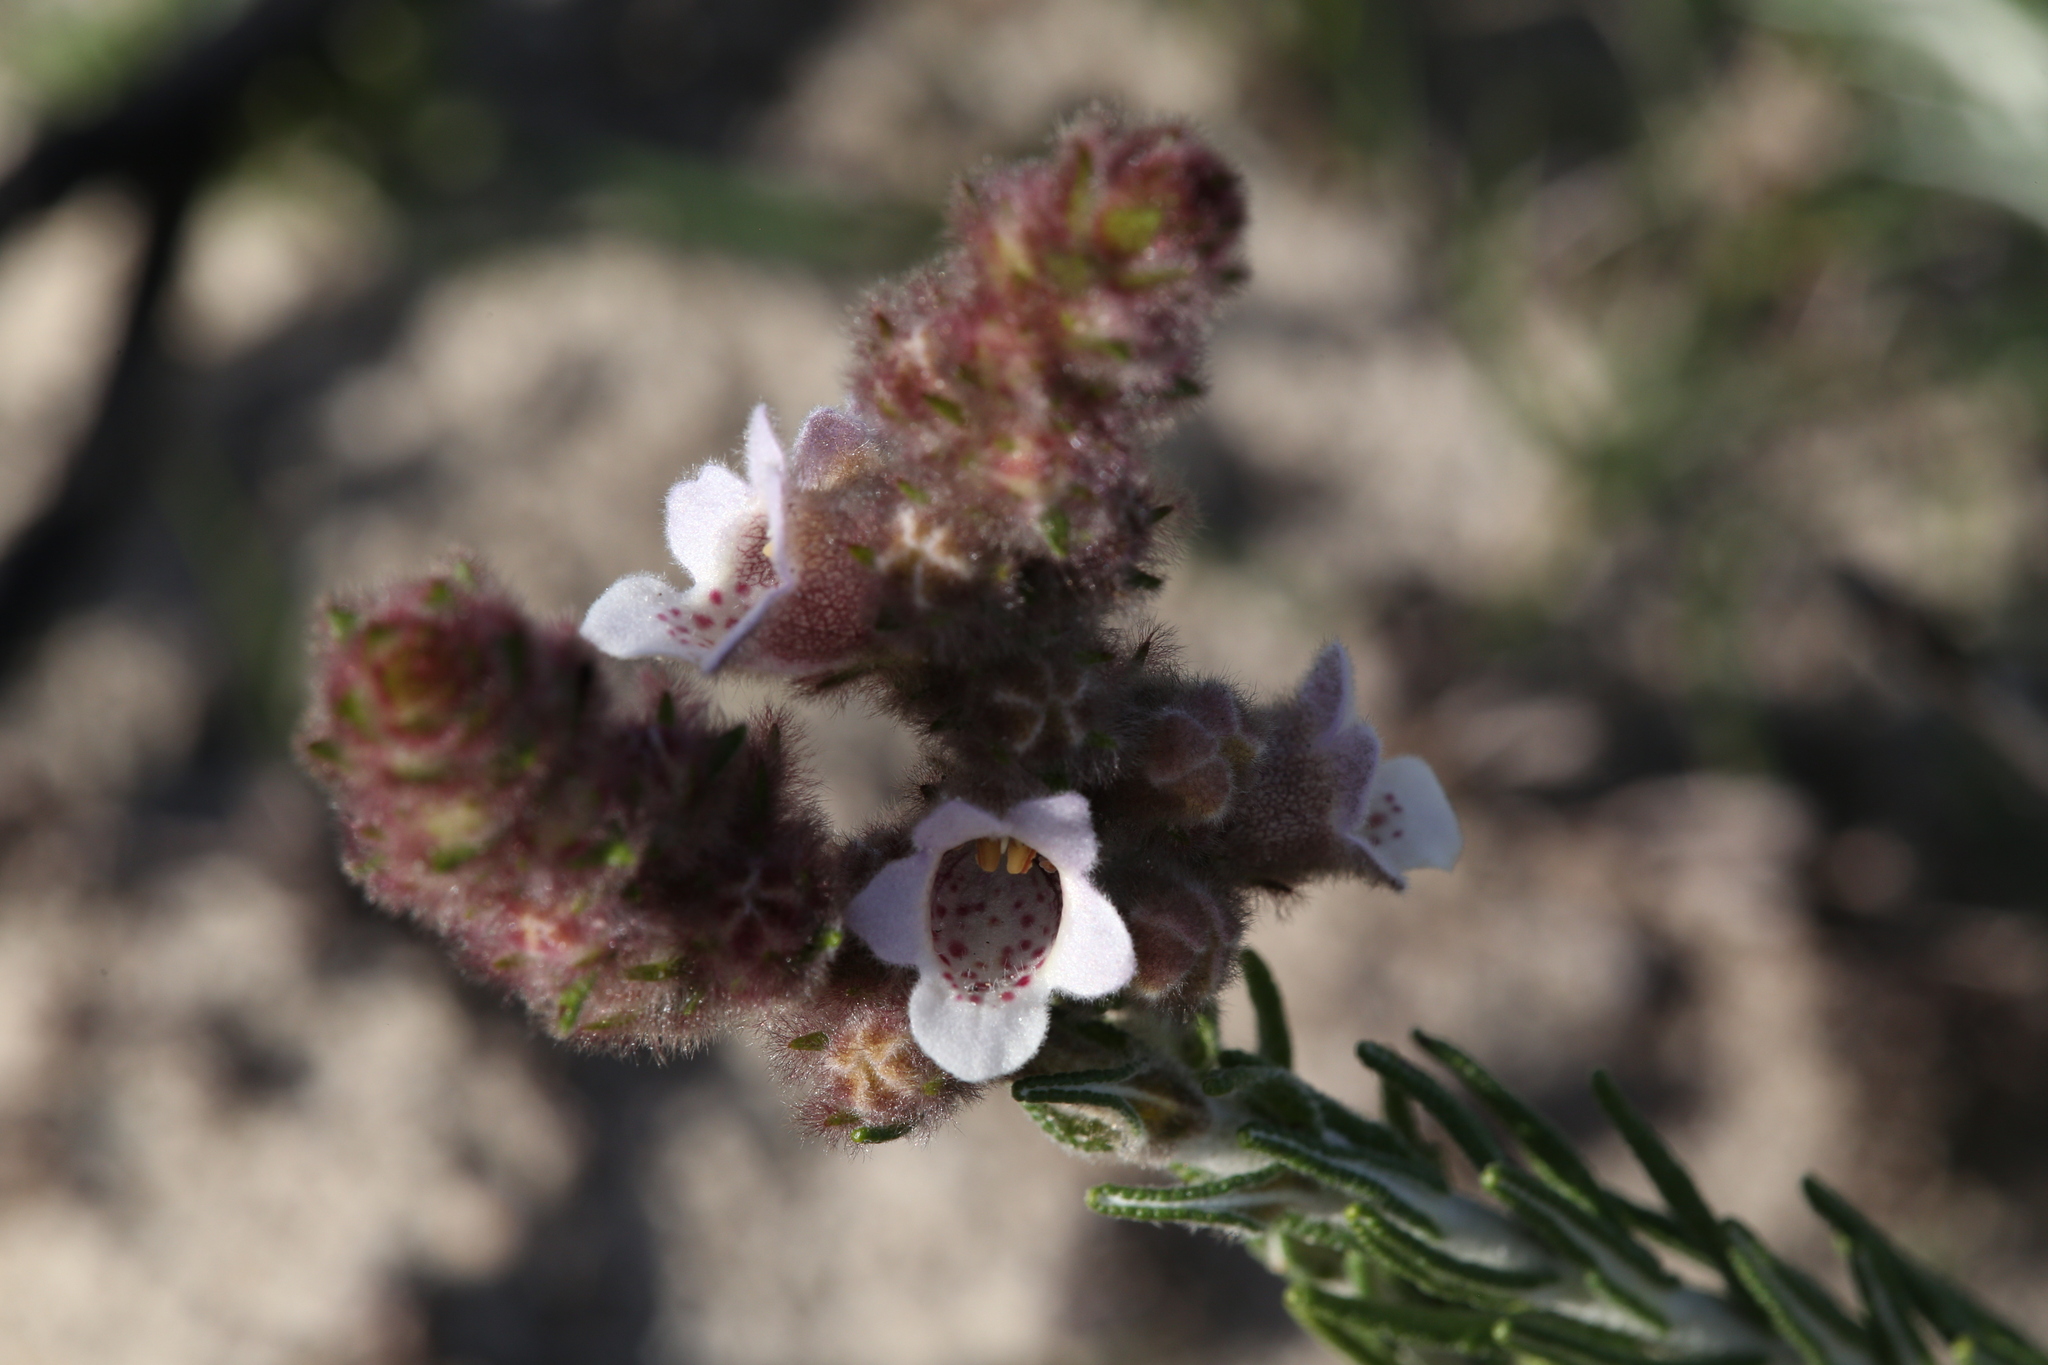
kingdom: Plantae
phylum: Tracheophyta
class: Magnoliopsida
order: Lamiales
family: Lamiaceae
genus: Hemiphora
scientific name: Hemiphora bartlingii
